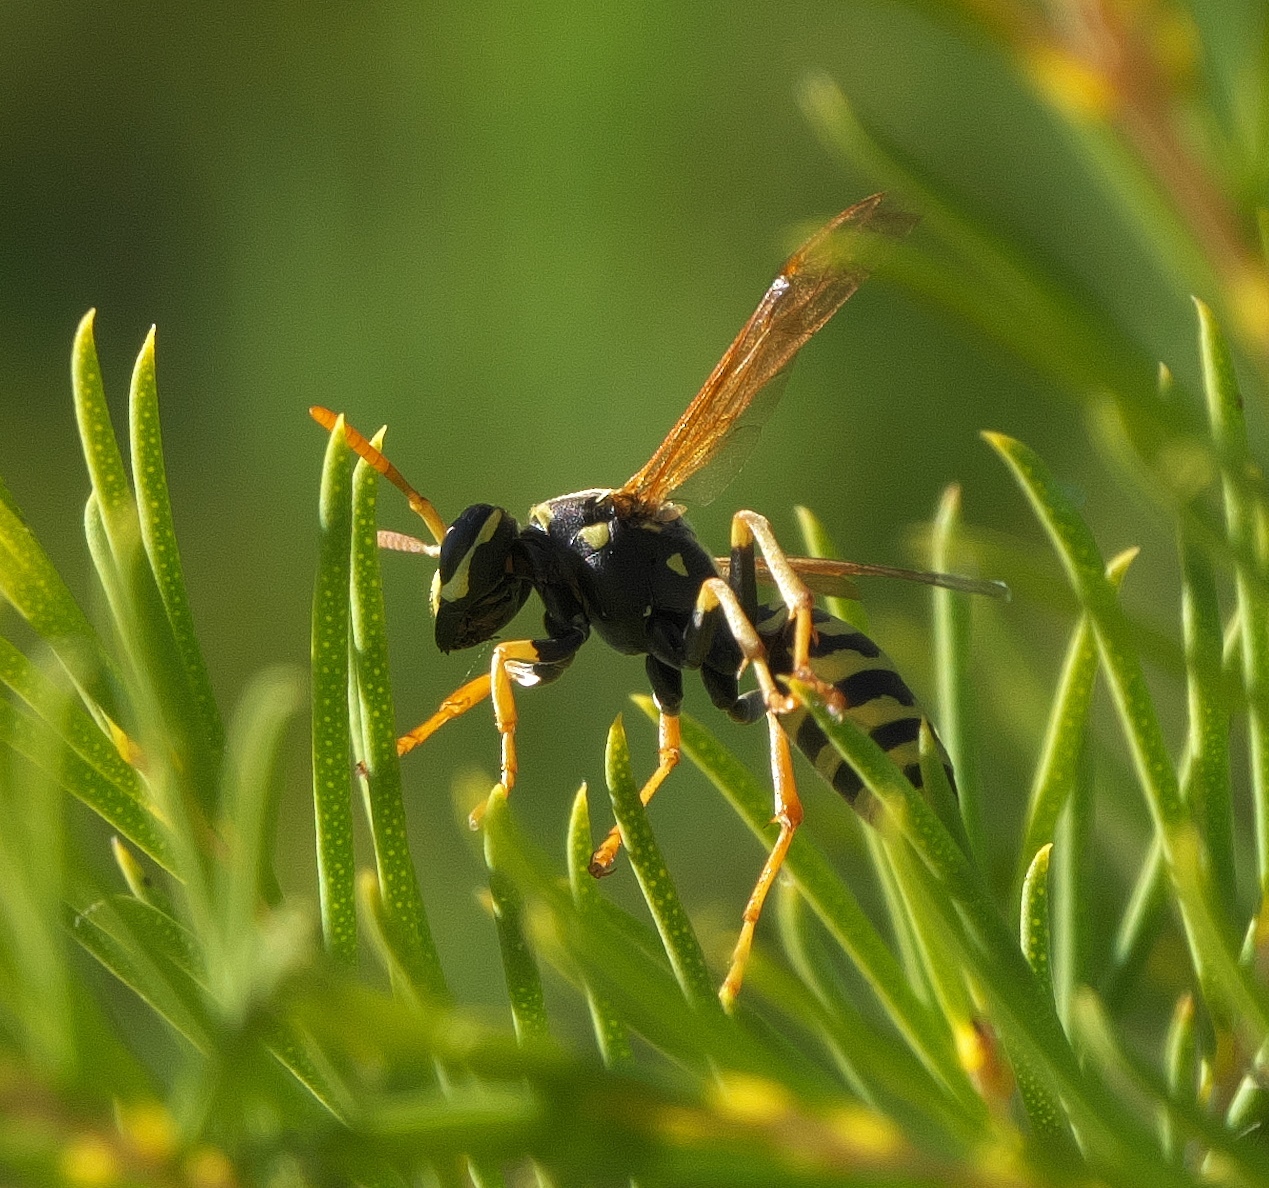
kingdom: Animalia
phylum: Arthropoda
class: Insecta
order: Hymenoptera
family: Eumenidae
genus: Polistes
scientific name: Polistes dominula
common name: Paper wasp
